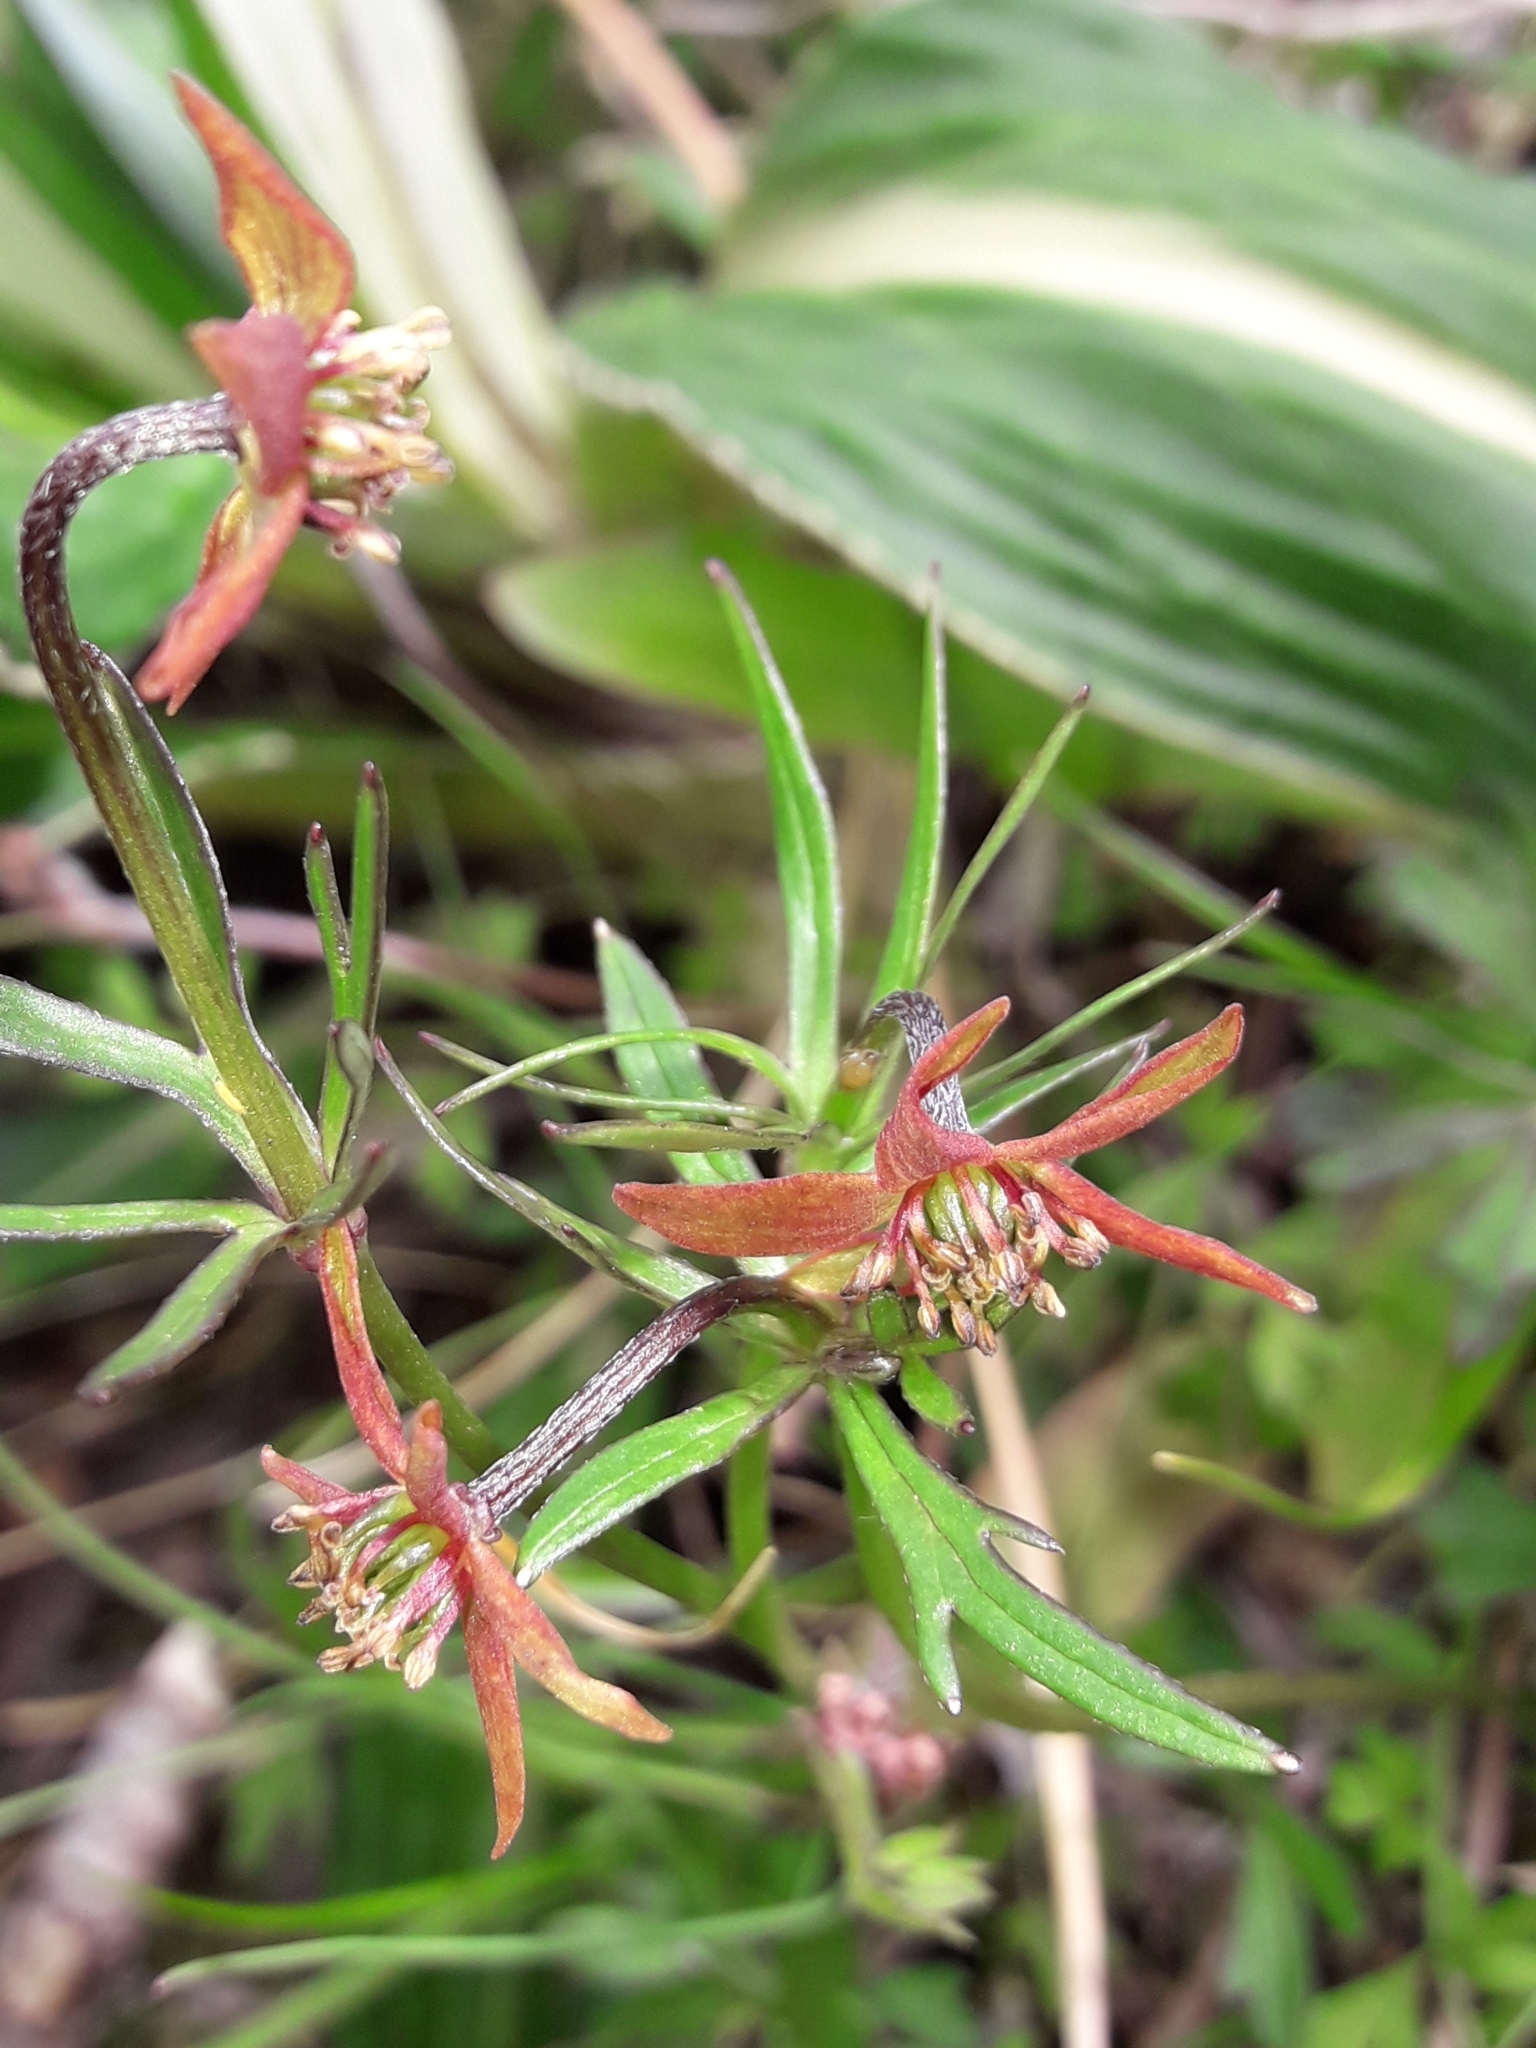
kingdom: Plantae
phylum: Tracheophyta
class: Magnoliopsida
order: Ranunculales
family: Ranunculaceae
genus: Anemonastrum
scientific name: Anemonastrum tenuicaule
